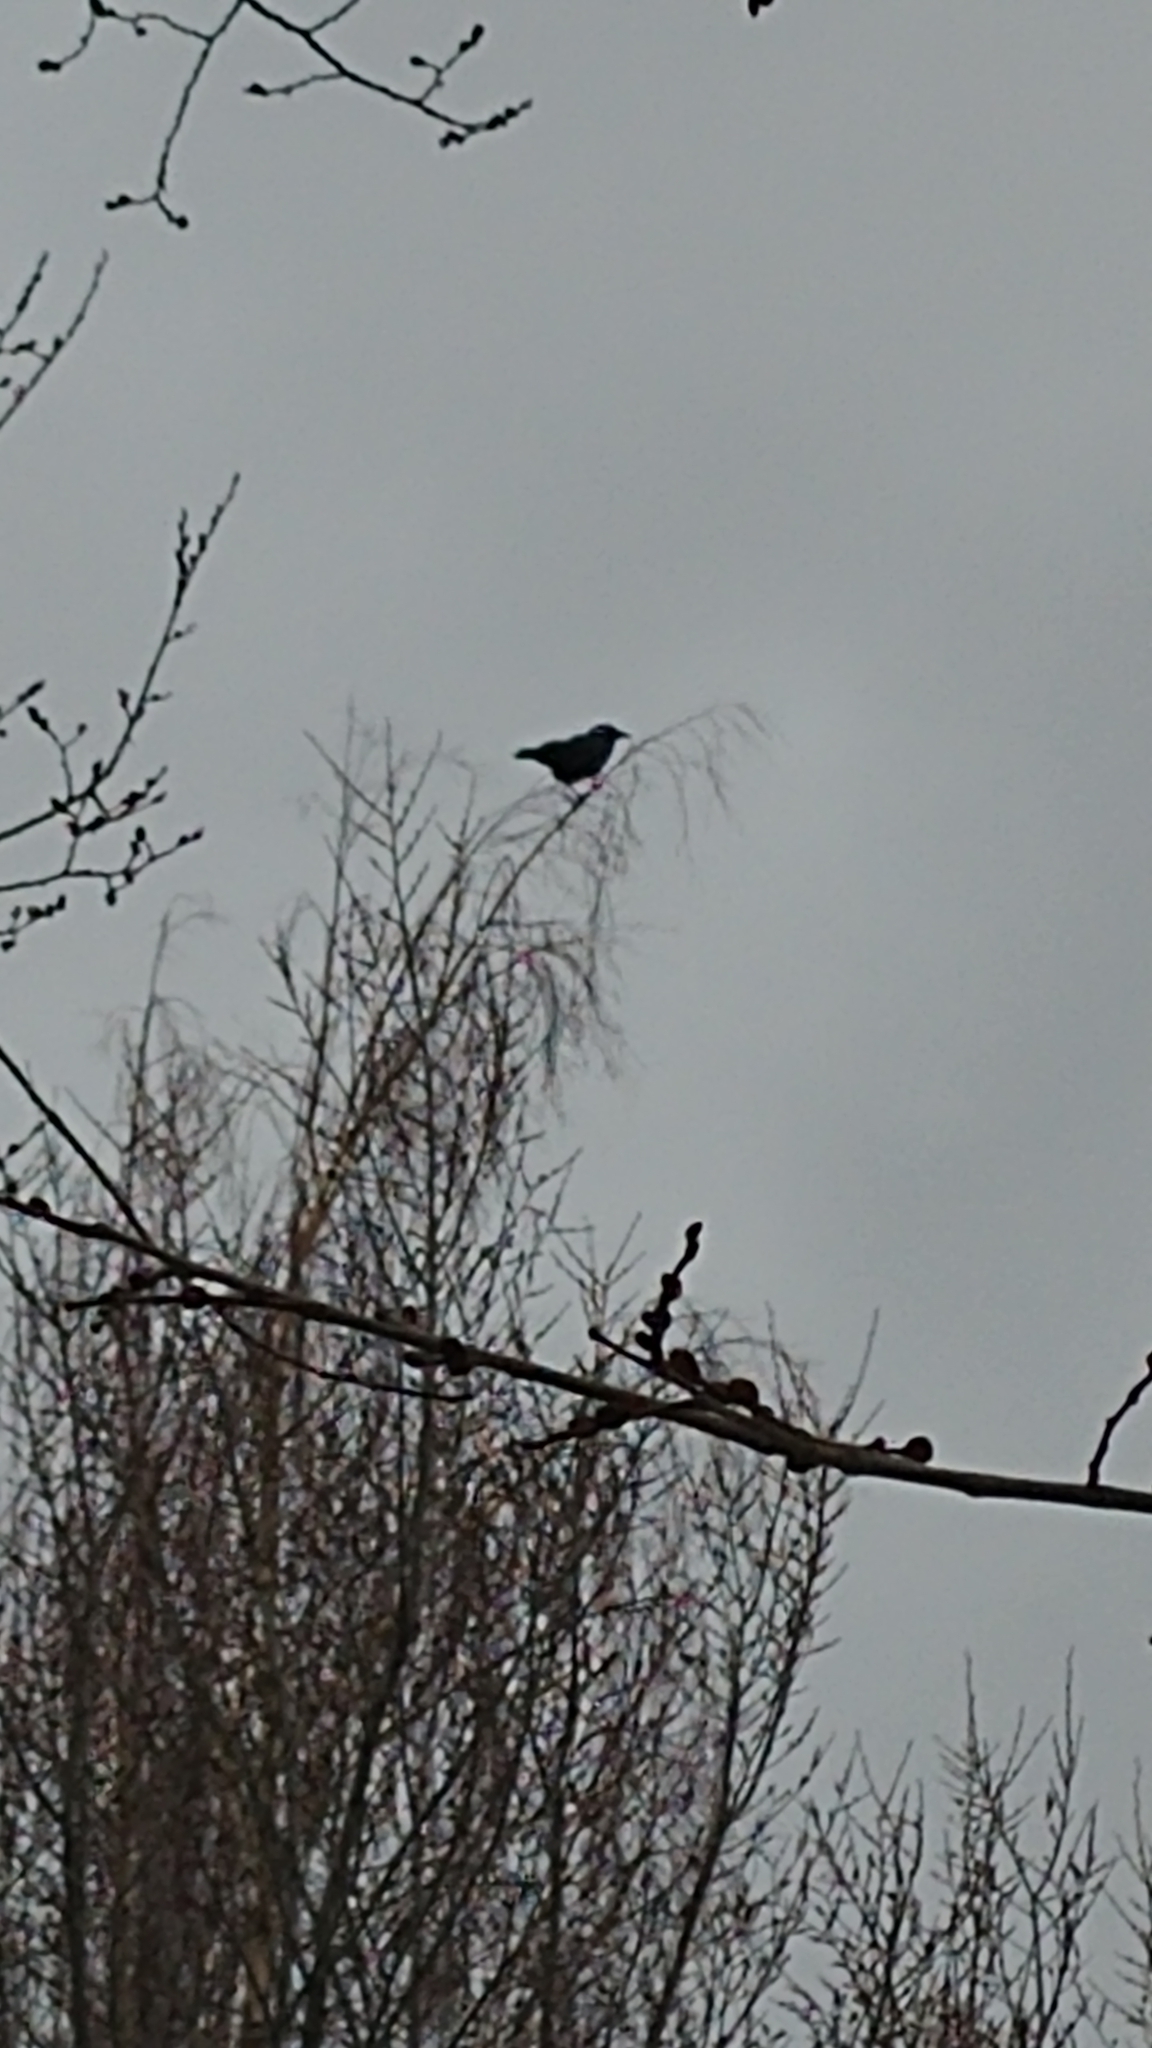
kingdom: Animalia
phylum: Chordata
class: Aves
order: Passeriformes
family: Corvidae
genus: Corvus
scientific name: Corvus brachyrhynchos
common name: American crow
